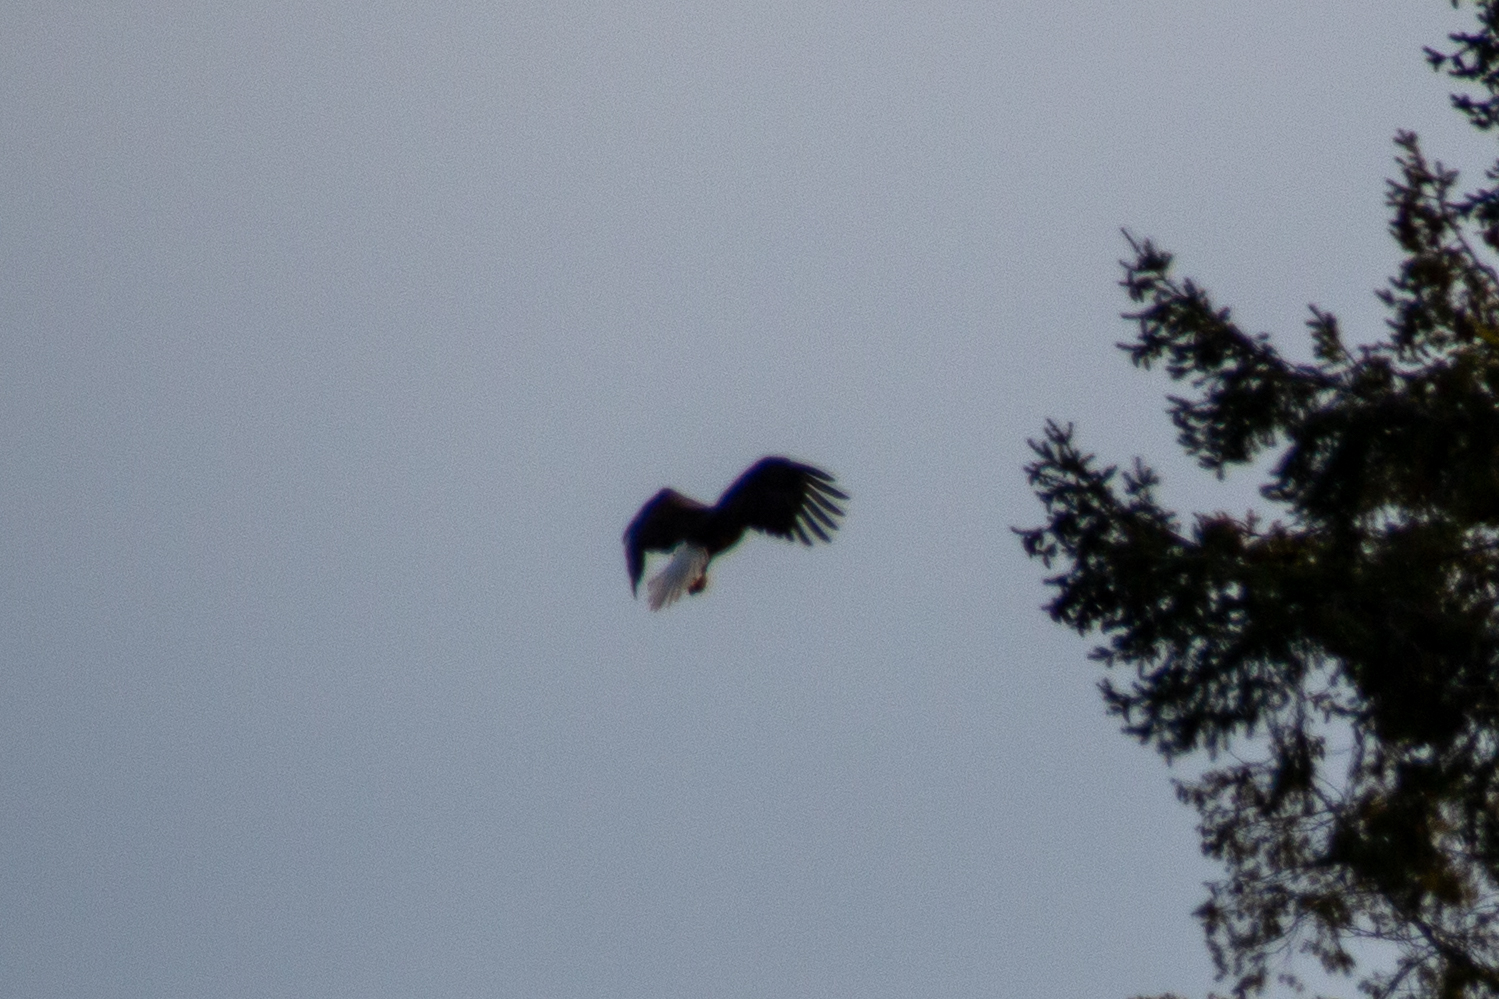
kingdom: Animalia
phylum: Chordata
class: Aves
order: Accipitriformes
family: Accipitridae
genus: Haliaeetus
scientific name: Haliaeetus leucocephalus
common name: Bald eagle
